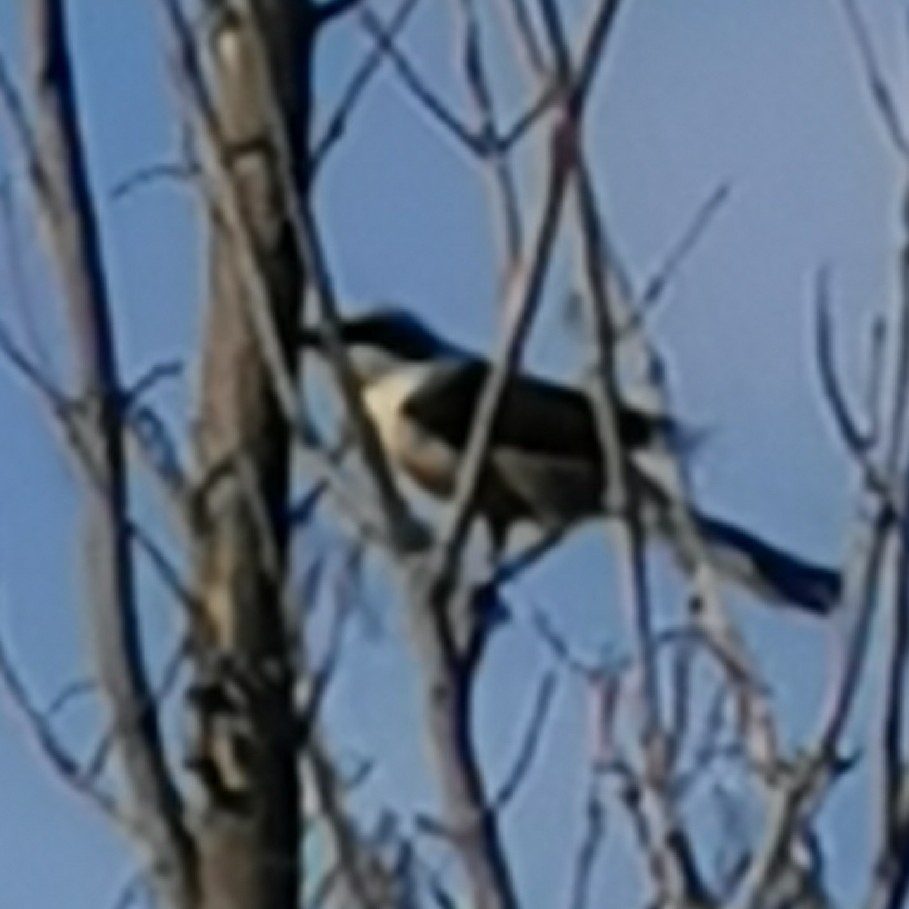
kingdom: Animalia
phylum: Chordata
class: Aves
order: Passeriformes
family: Laniidae
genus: Lanius
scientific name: Lanius collurio
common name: Red-backed shrike
